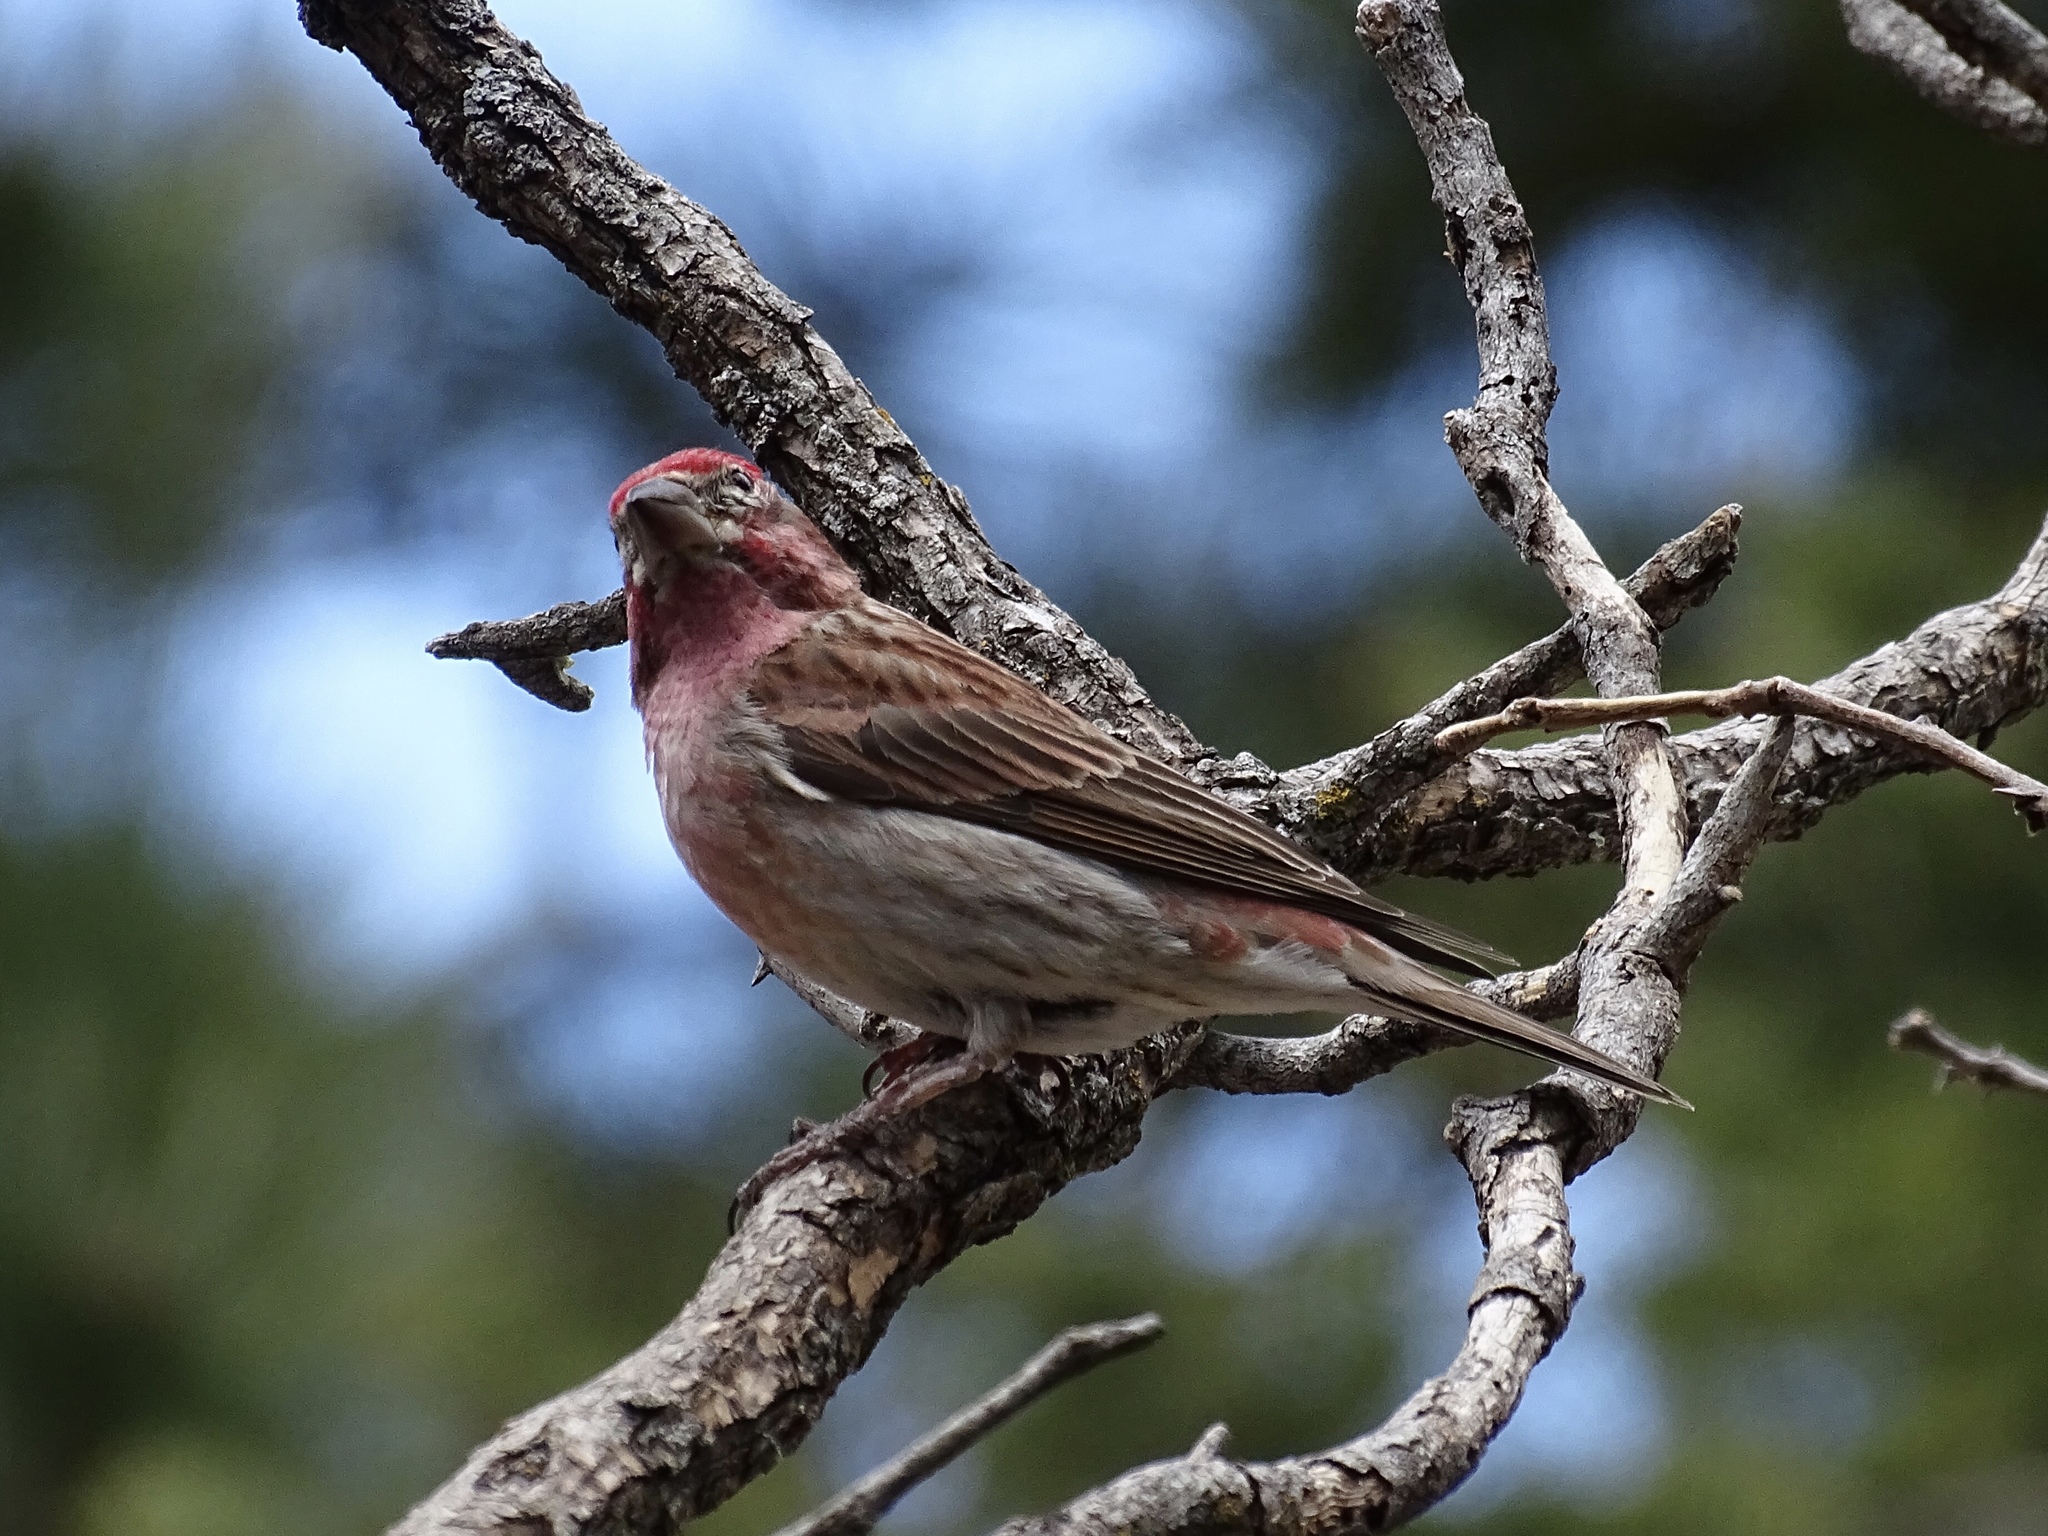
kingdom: Animalia
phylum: Chordata
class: Aves
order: Passeriformes
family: Fringillidae
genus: Haemorhous
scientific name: Haemorhous cassinii
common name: Cassin's finch
